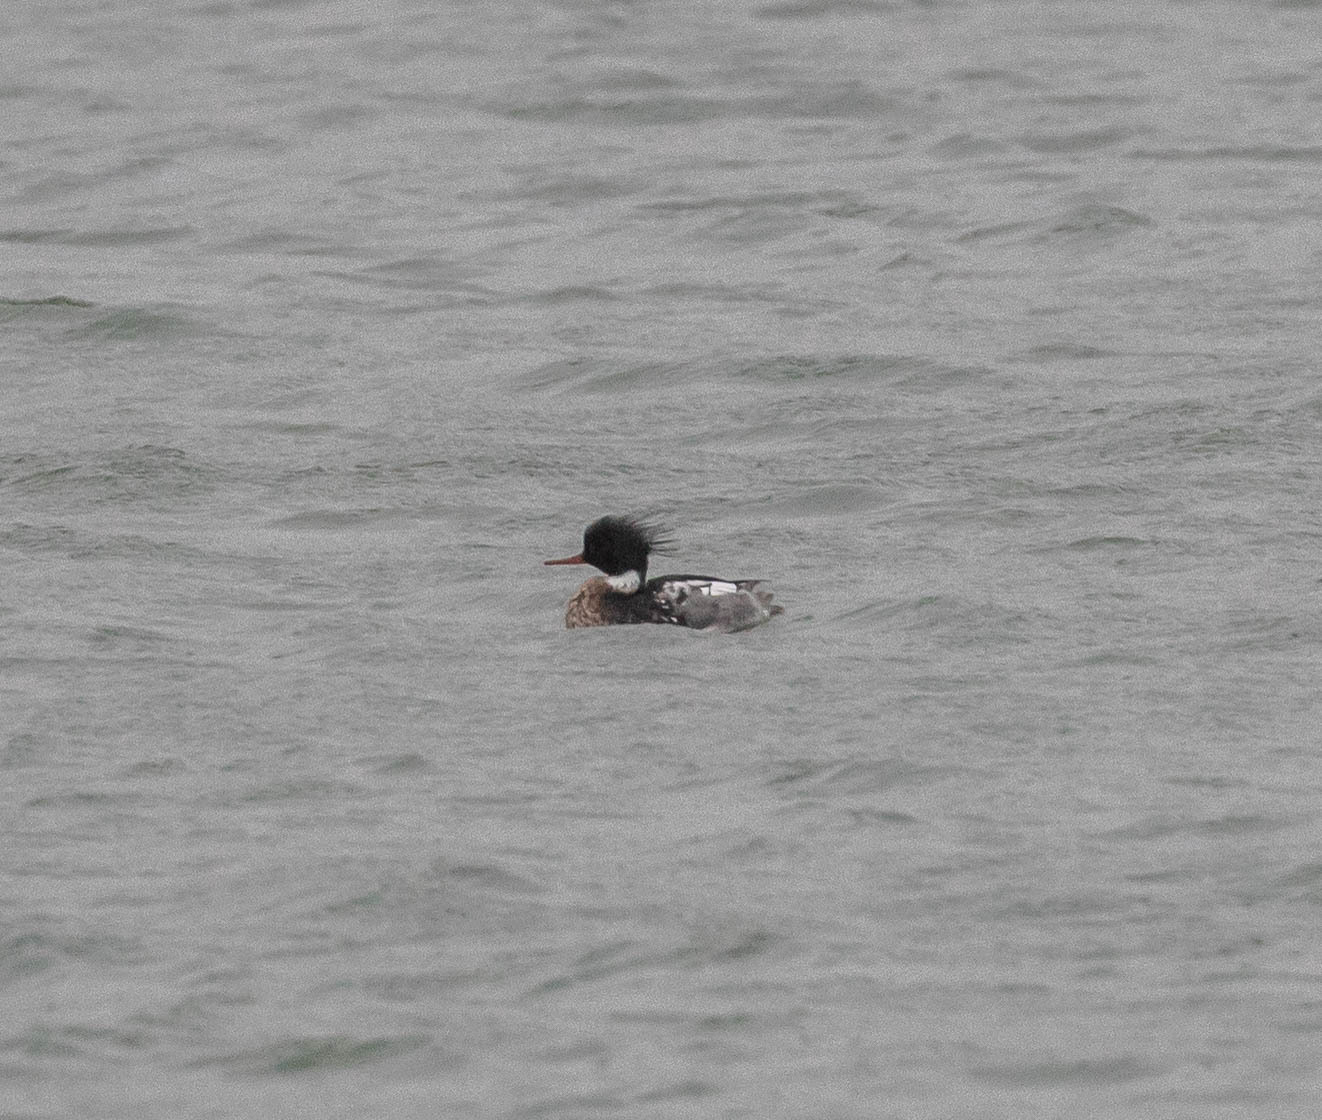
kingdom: Animalia
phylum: Chordata
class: Aves
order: Anseriformes
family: Anatidae
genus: Mergus
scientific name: Mergus serrator
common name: Red-breasted merganser
